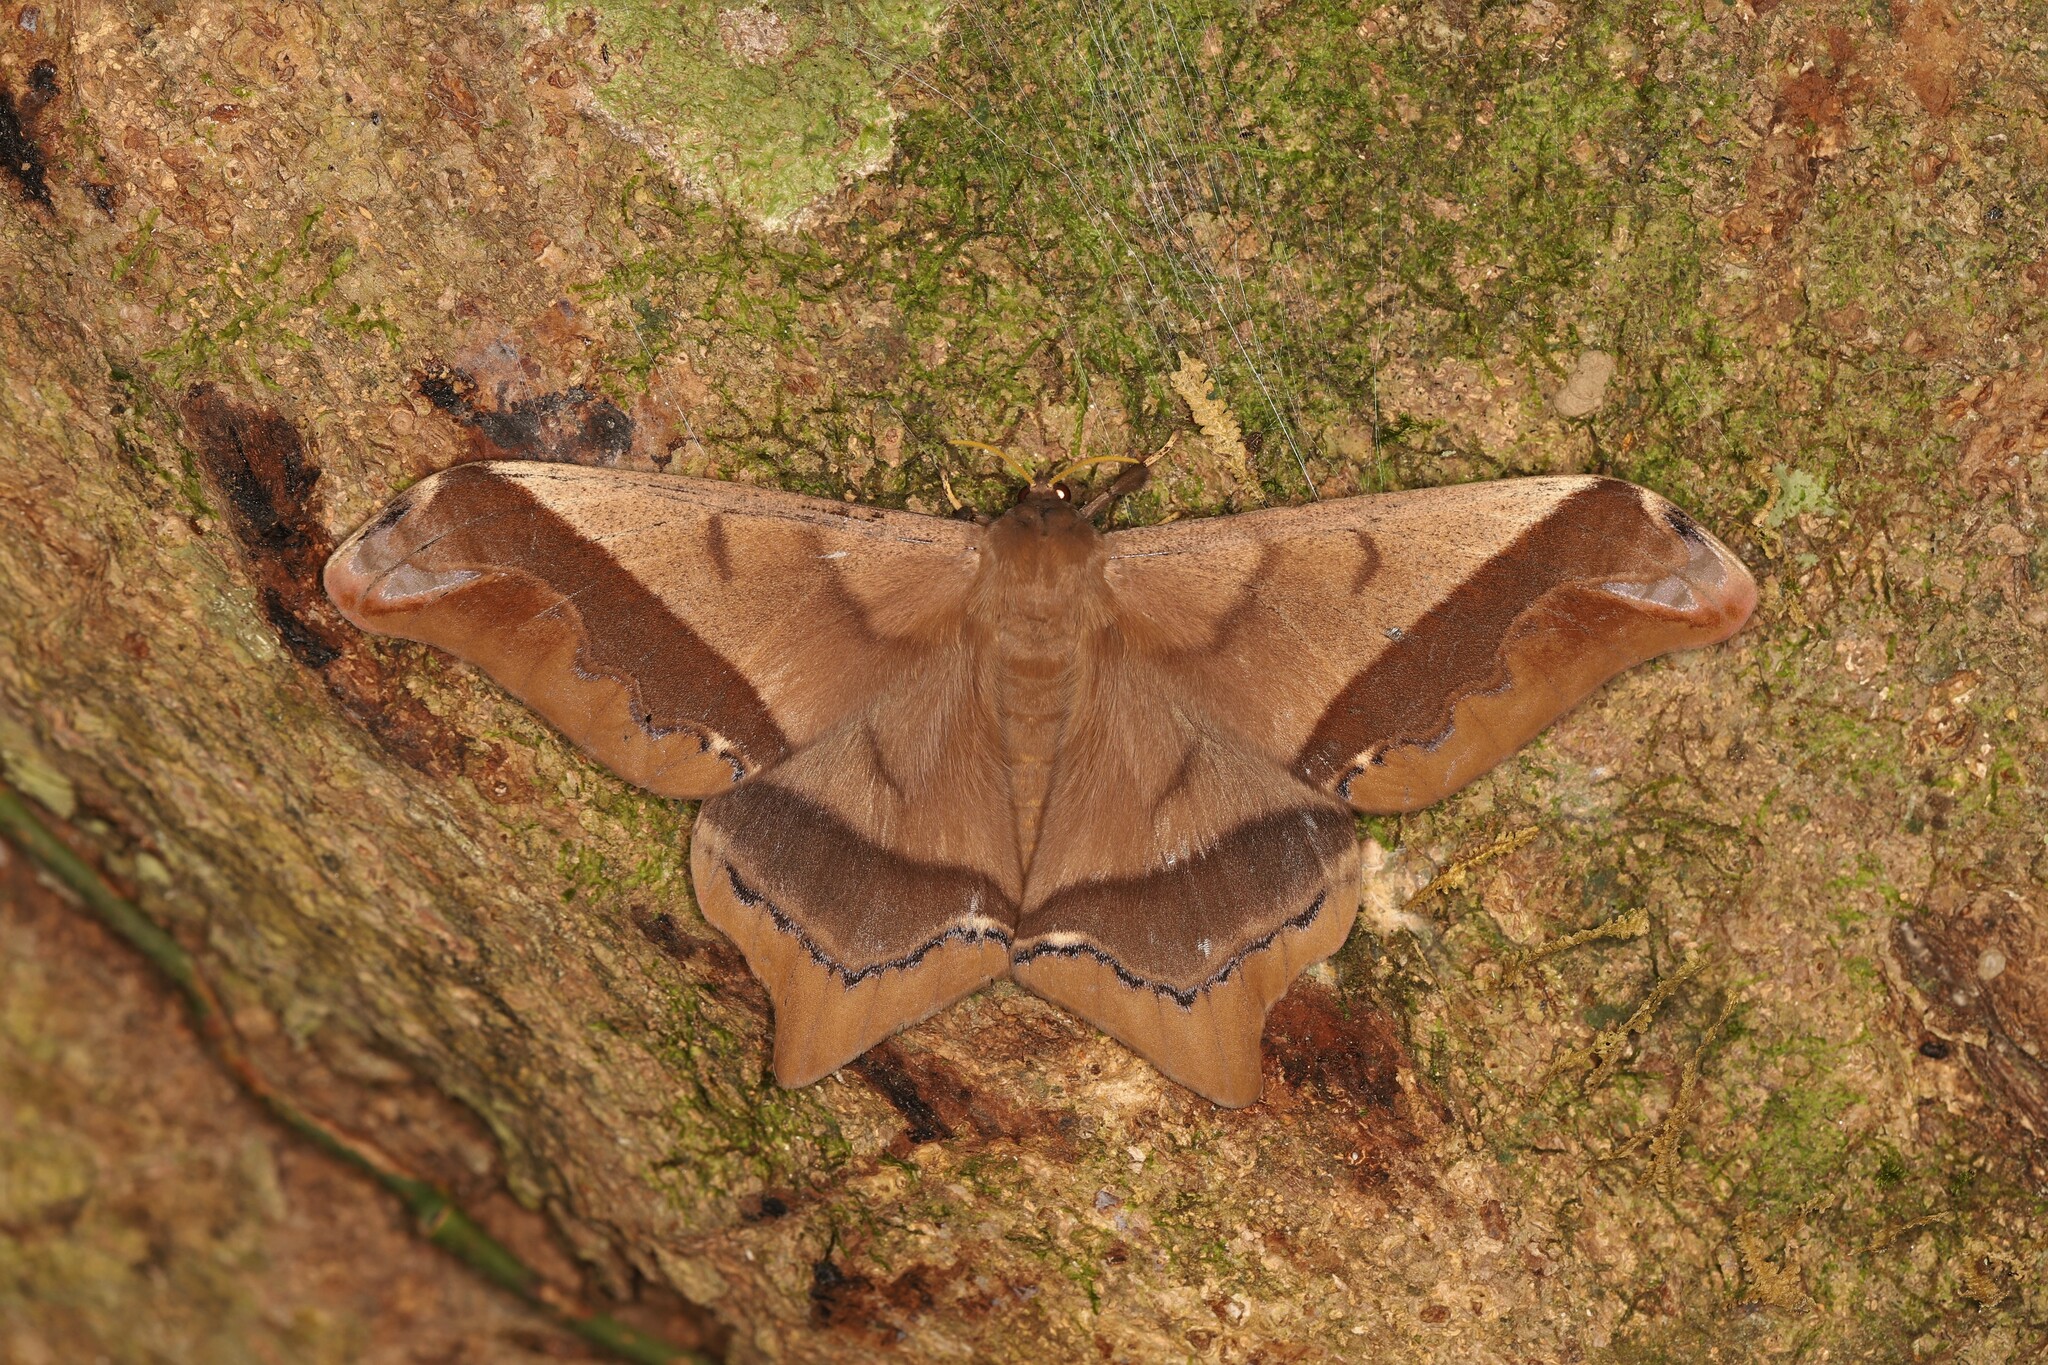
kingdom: Animalia
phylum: Arthropoda
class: Insecta
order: Lepidoptera
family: Saturniidae
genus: Arsenura
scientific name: Arsenura ciocolatina
